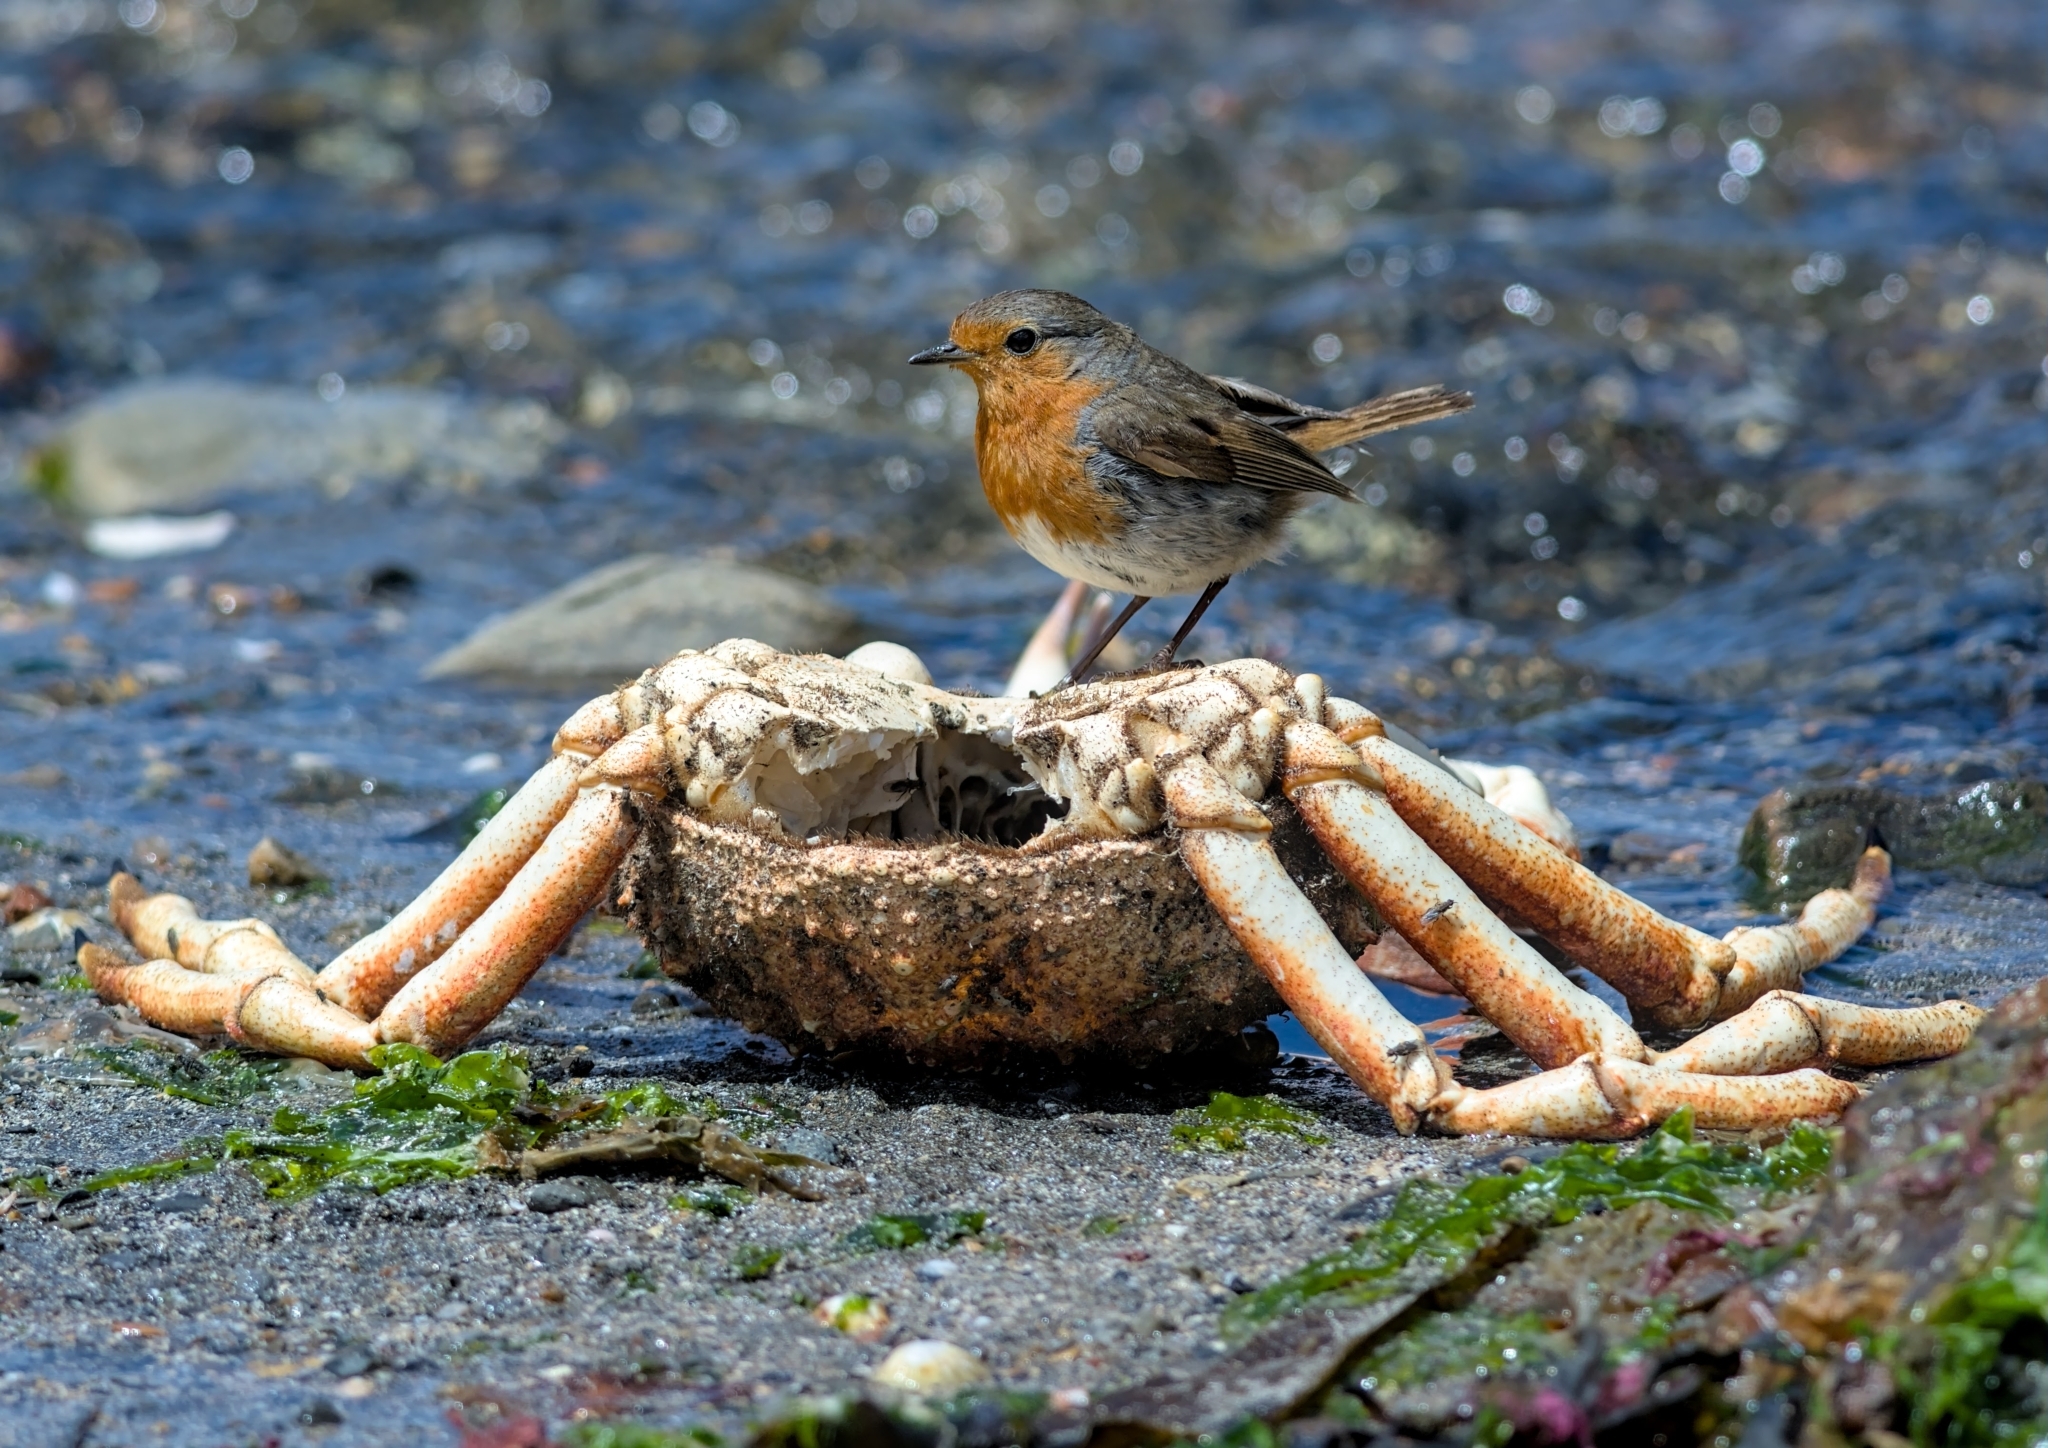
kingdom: Animalia
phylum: Chordata
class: Aves
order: Passeriformes
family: Muscicapidae
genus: Erithacus
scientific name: Erithacus rubecula
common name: European robin
